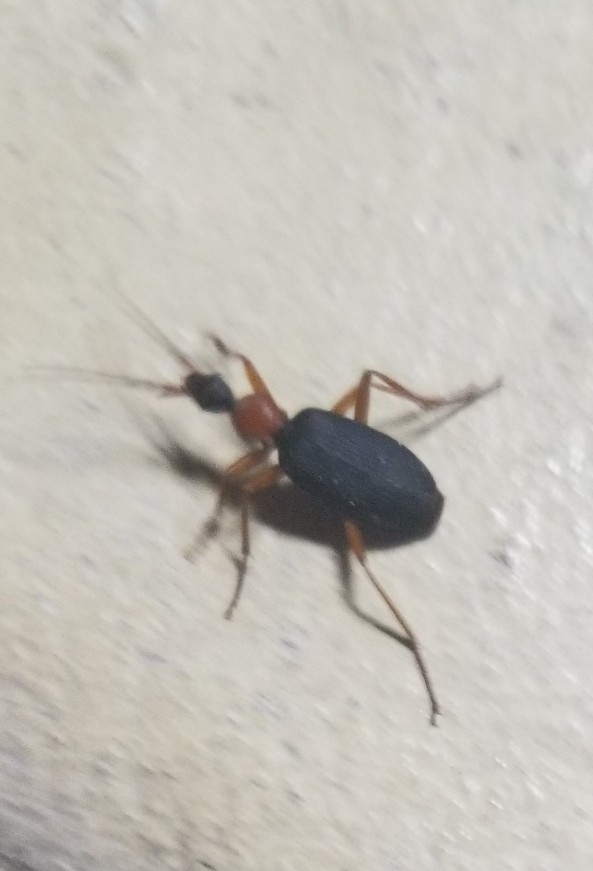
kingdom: Animalia
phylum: Arthropoda
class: Insecta
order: Coleoptera
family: Carabidae
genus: Galerita
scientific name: Galerita bicolor
